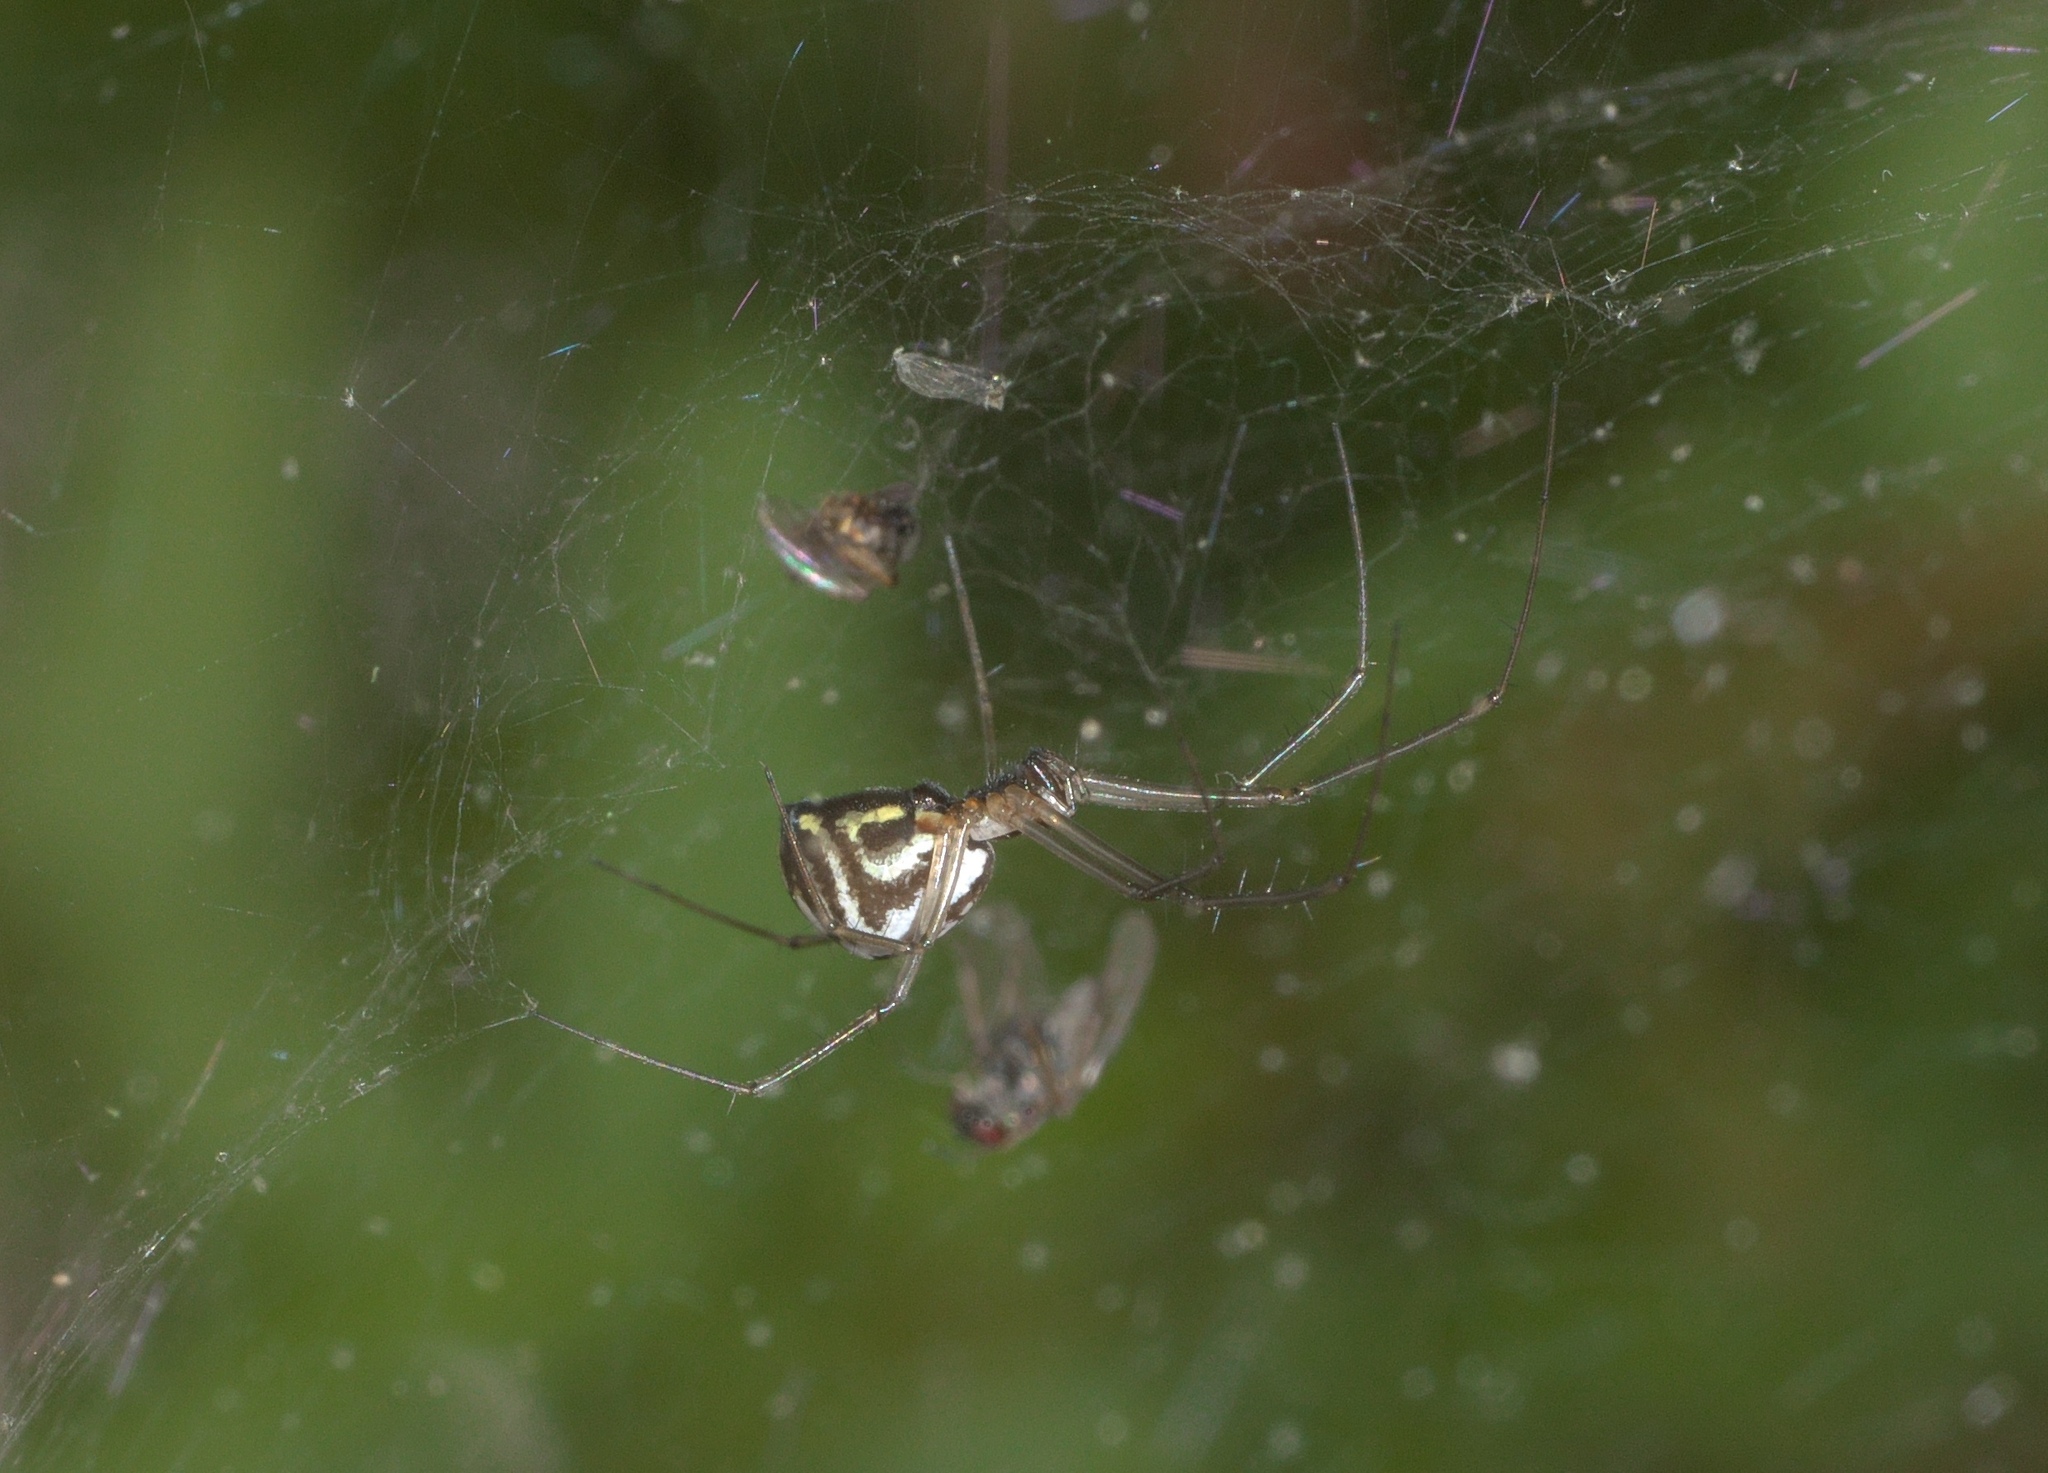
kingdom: Animalia
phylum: Arthropoda
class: Arachnida
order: Araneae
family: Linyphiidae
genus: Neriene
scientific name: Neriene radiata
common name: Filmy dome spider
